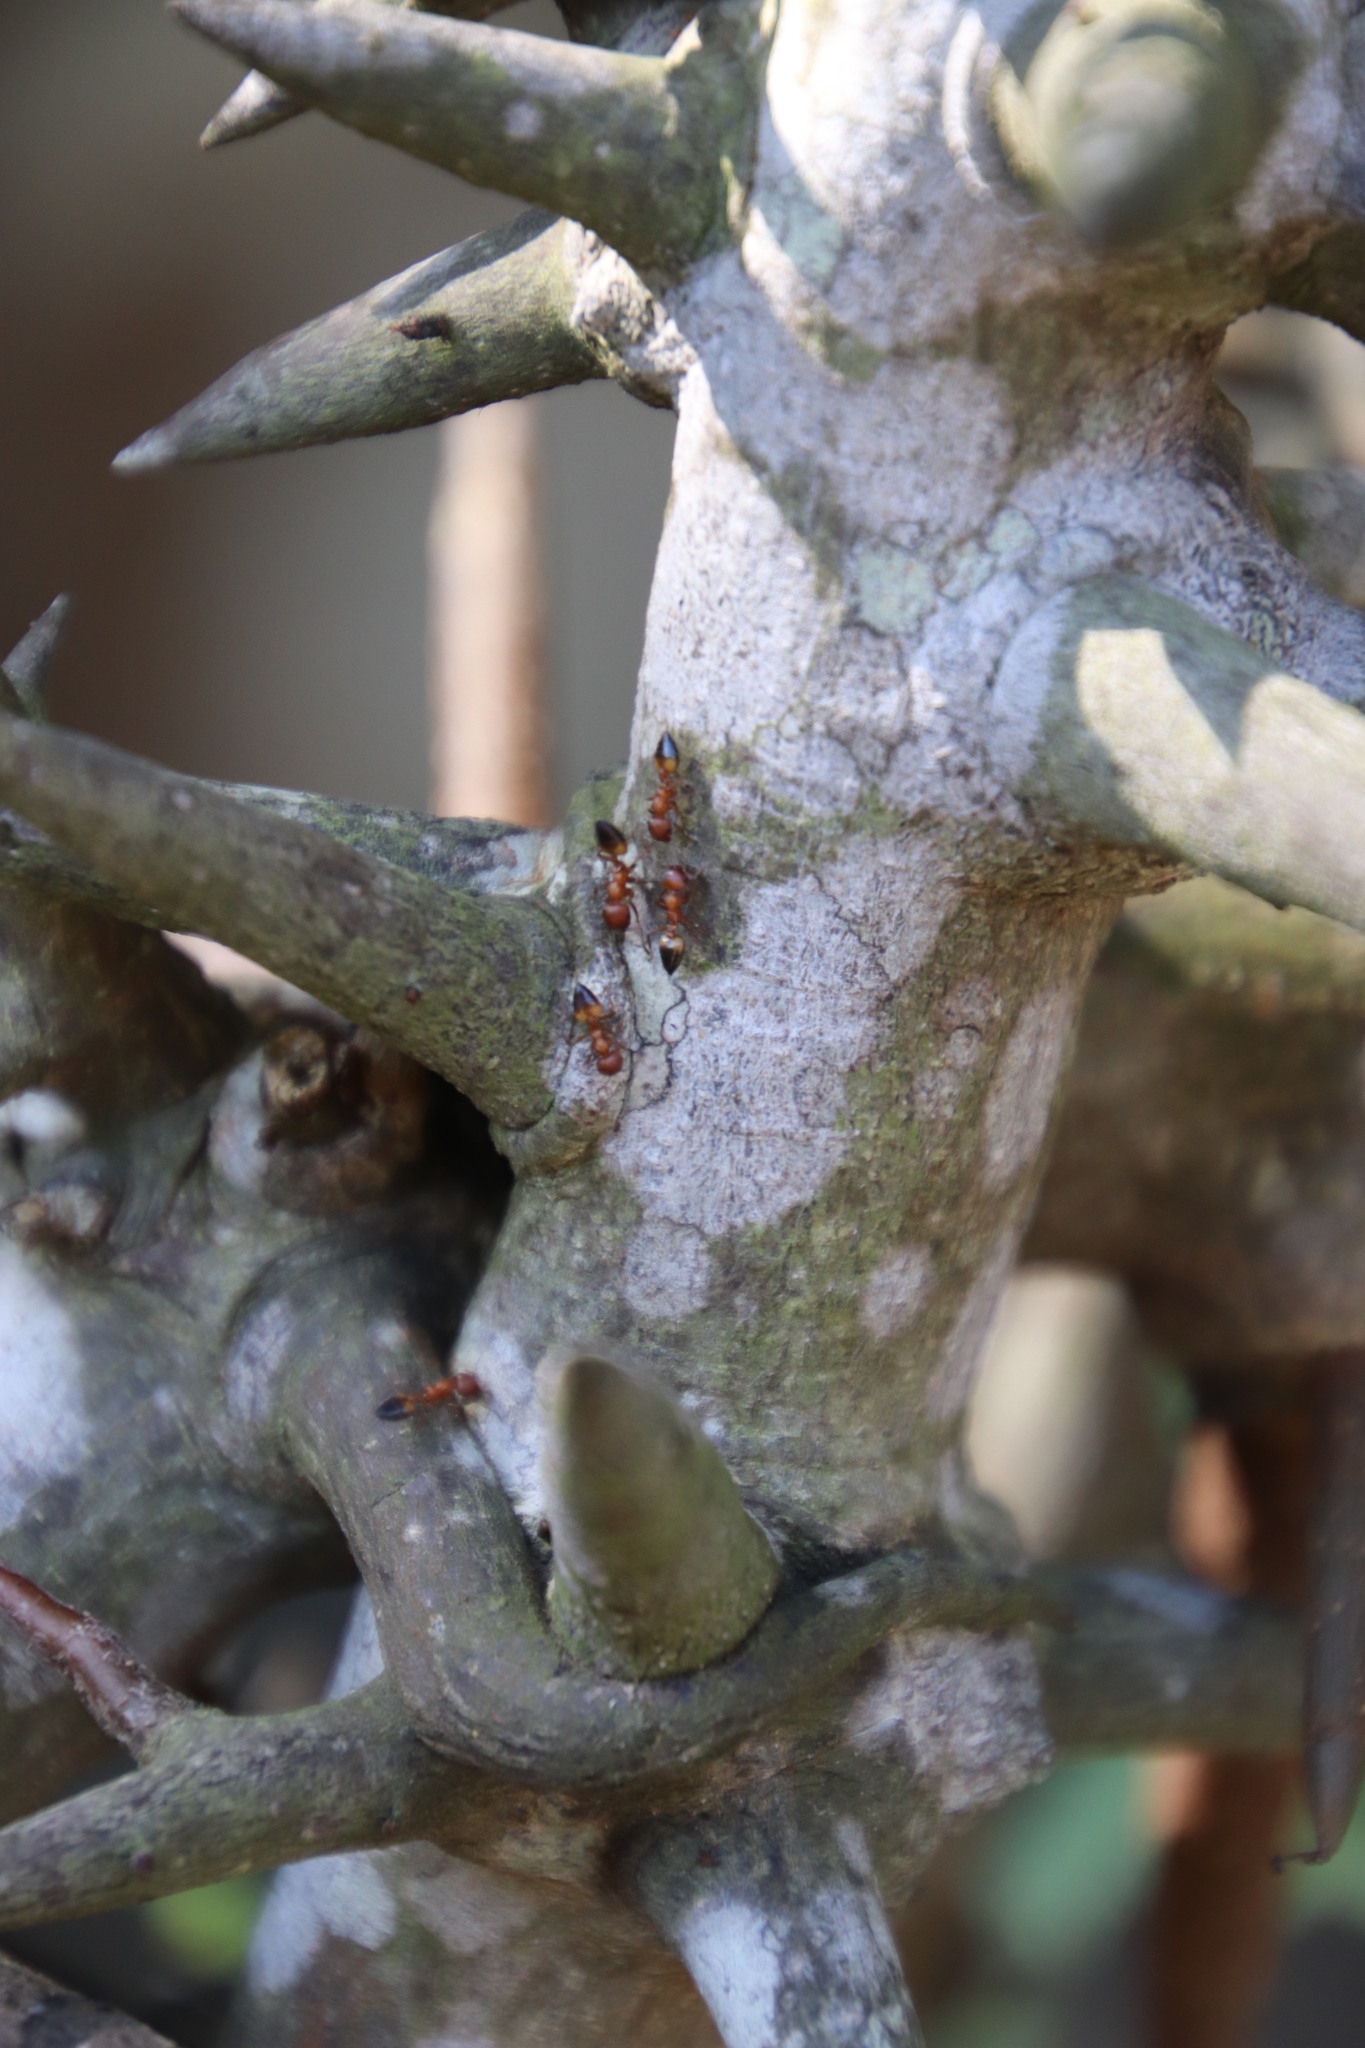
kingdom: Animalia
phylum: Arthropoda
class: Insecta
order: Hymenoptera
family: Formicidae
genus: Crematogaster
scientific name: Crematogaster castanea
